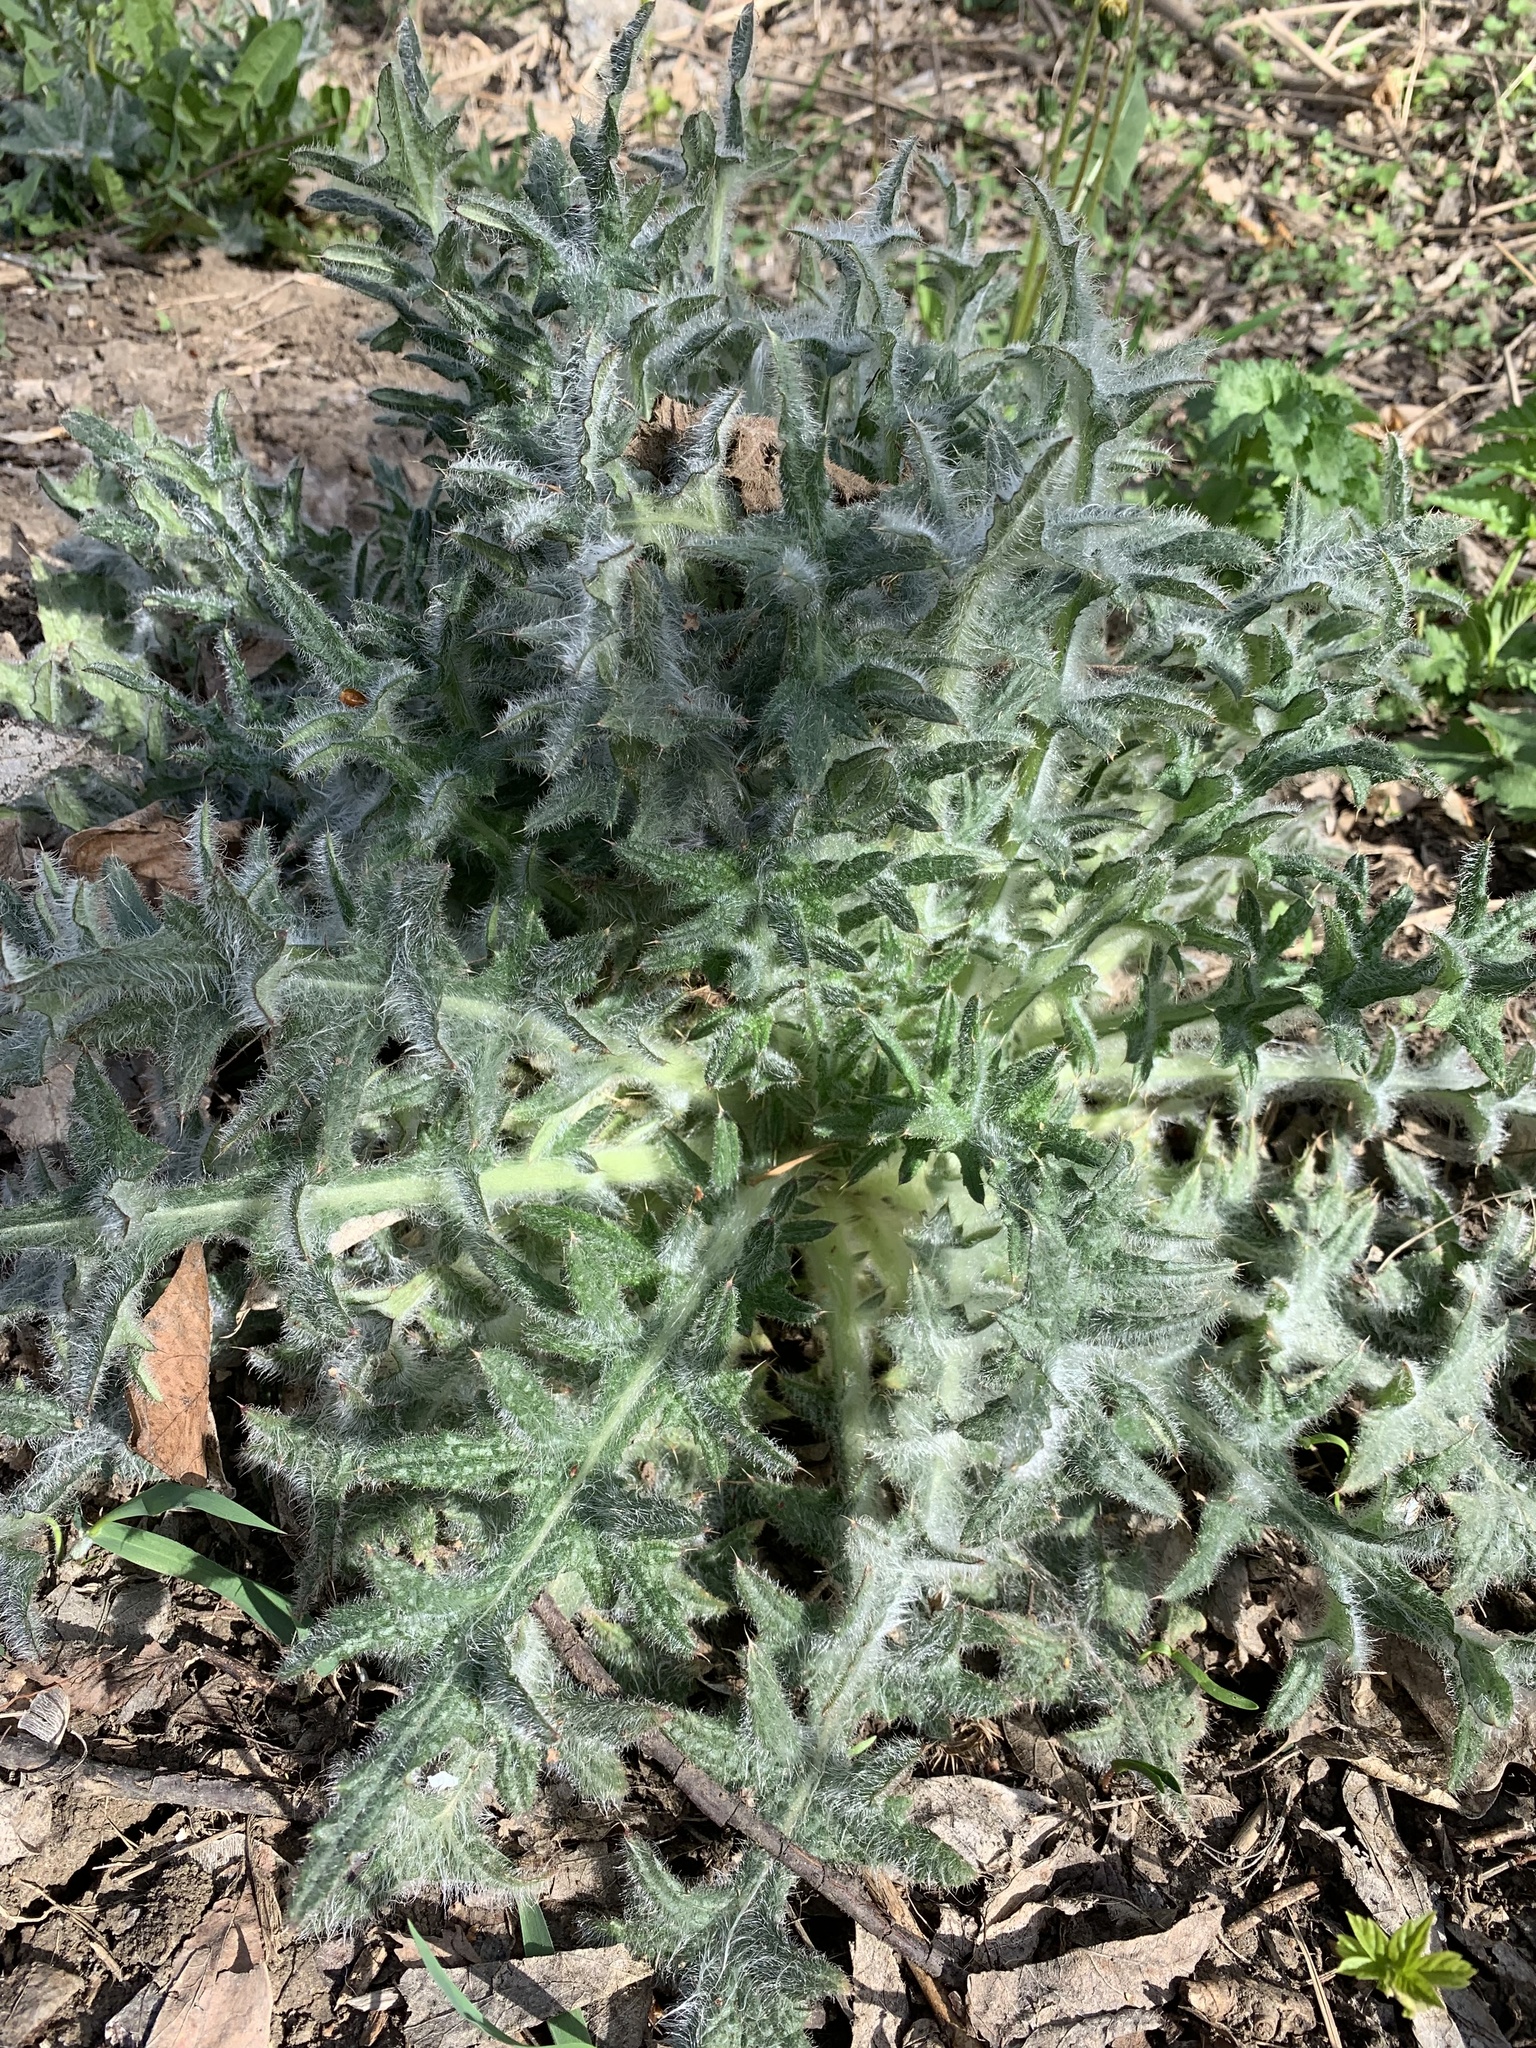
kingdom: Plantae
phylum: Tracheophyta
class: Magnoliopsida
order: Asterales
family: Asteraceae
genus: Cirsium
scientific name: Cirsium vulgare
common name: Bull thistle
